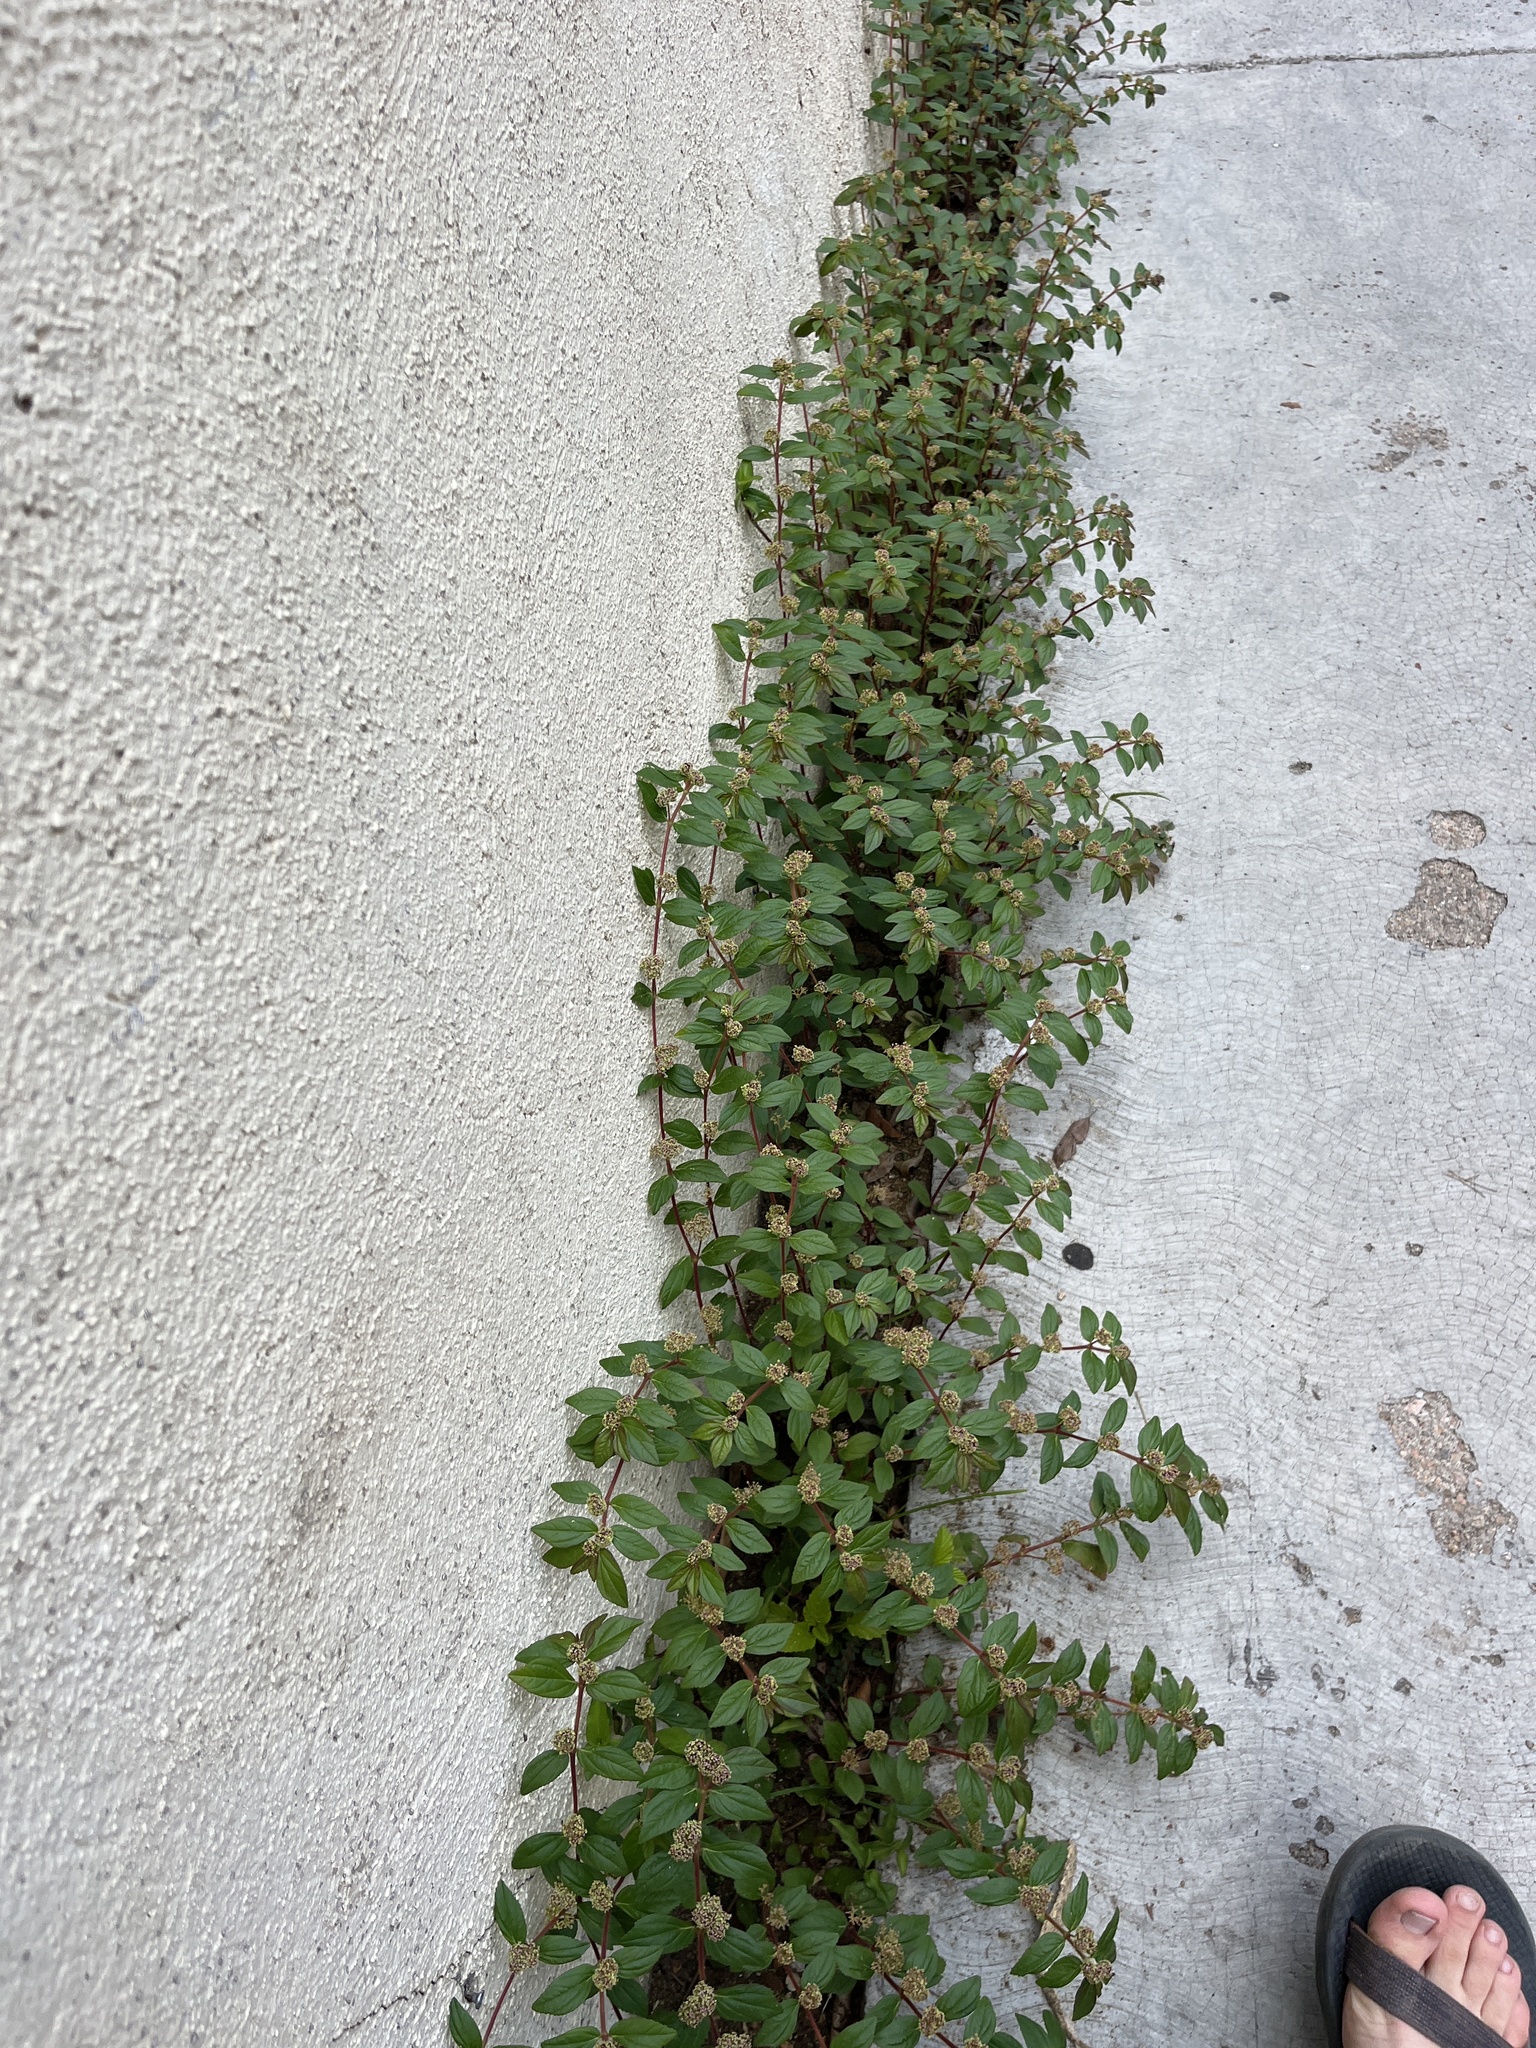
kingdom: Plantae
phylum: Tracheophyta
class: Magnoliopsida
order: Malpighiales
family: Euphorbiaceae
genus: Euphorbia
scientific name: Euphorbia hirta
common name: Pillpod sandmat
